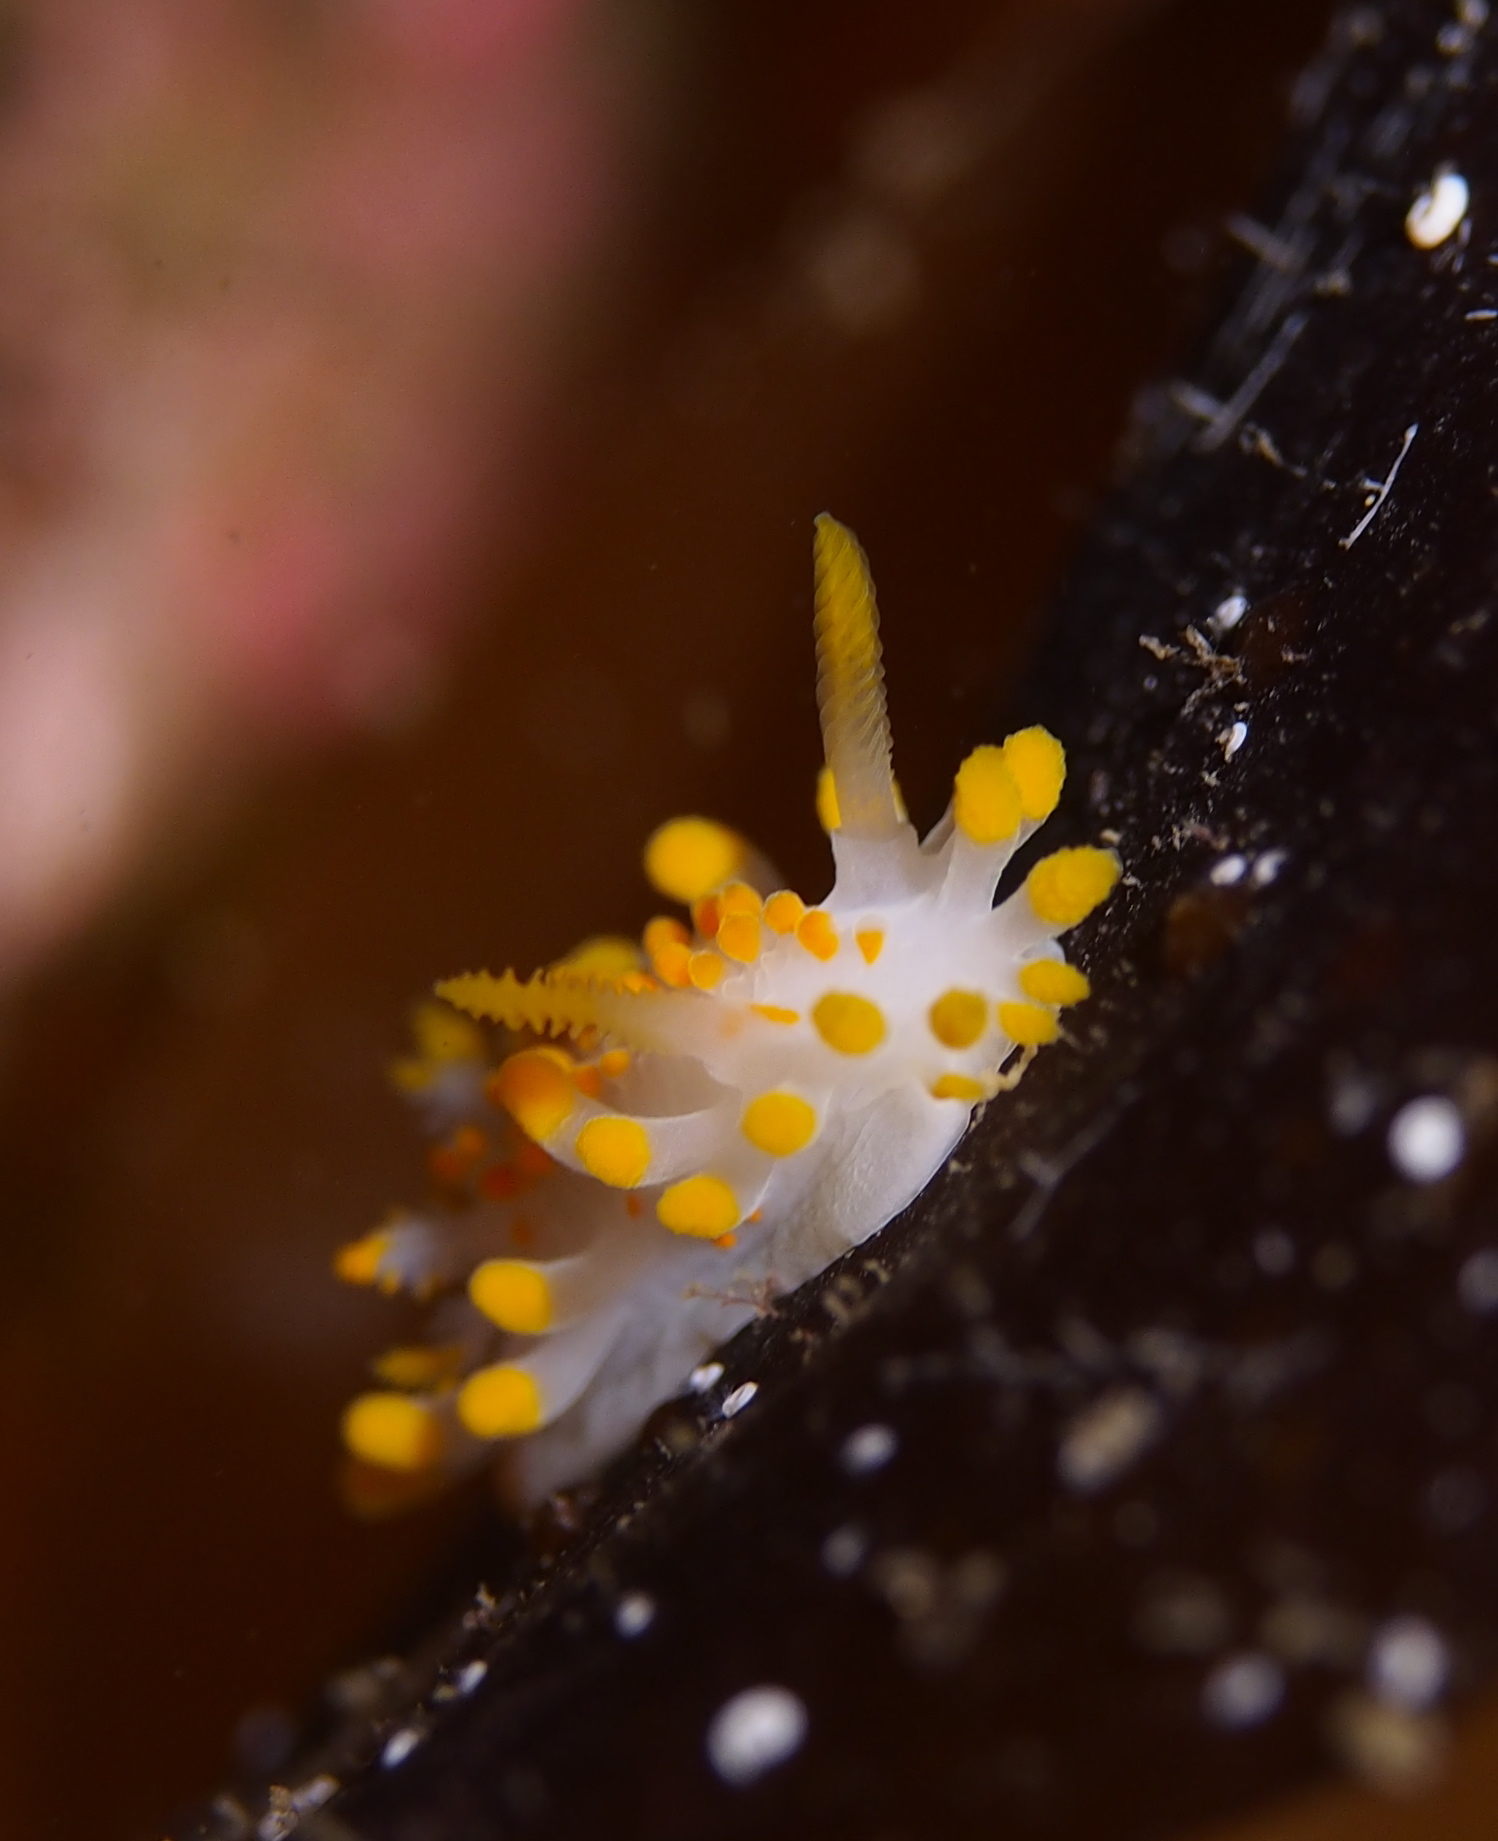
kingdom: Animalia
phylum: Mollusca
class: Gastropoda
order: Nudibranchia
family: Polyceridae
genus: Limacia
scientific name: Limacia clavigera
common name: Orange-clubbed sea slug
